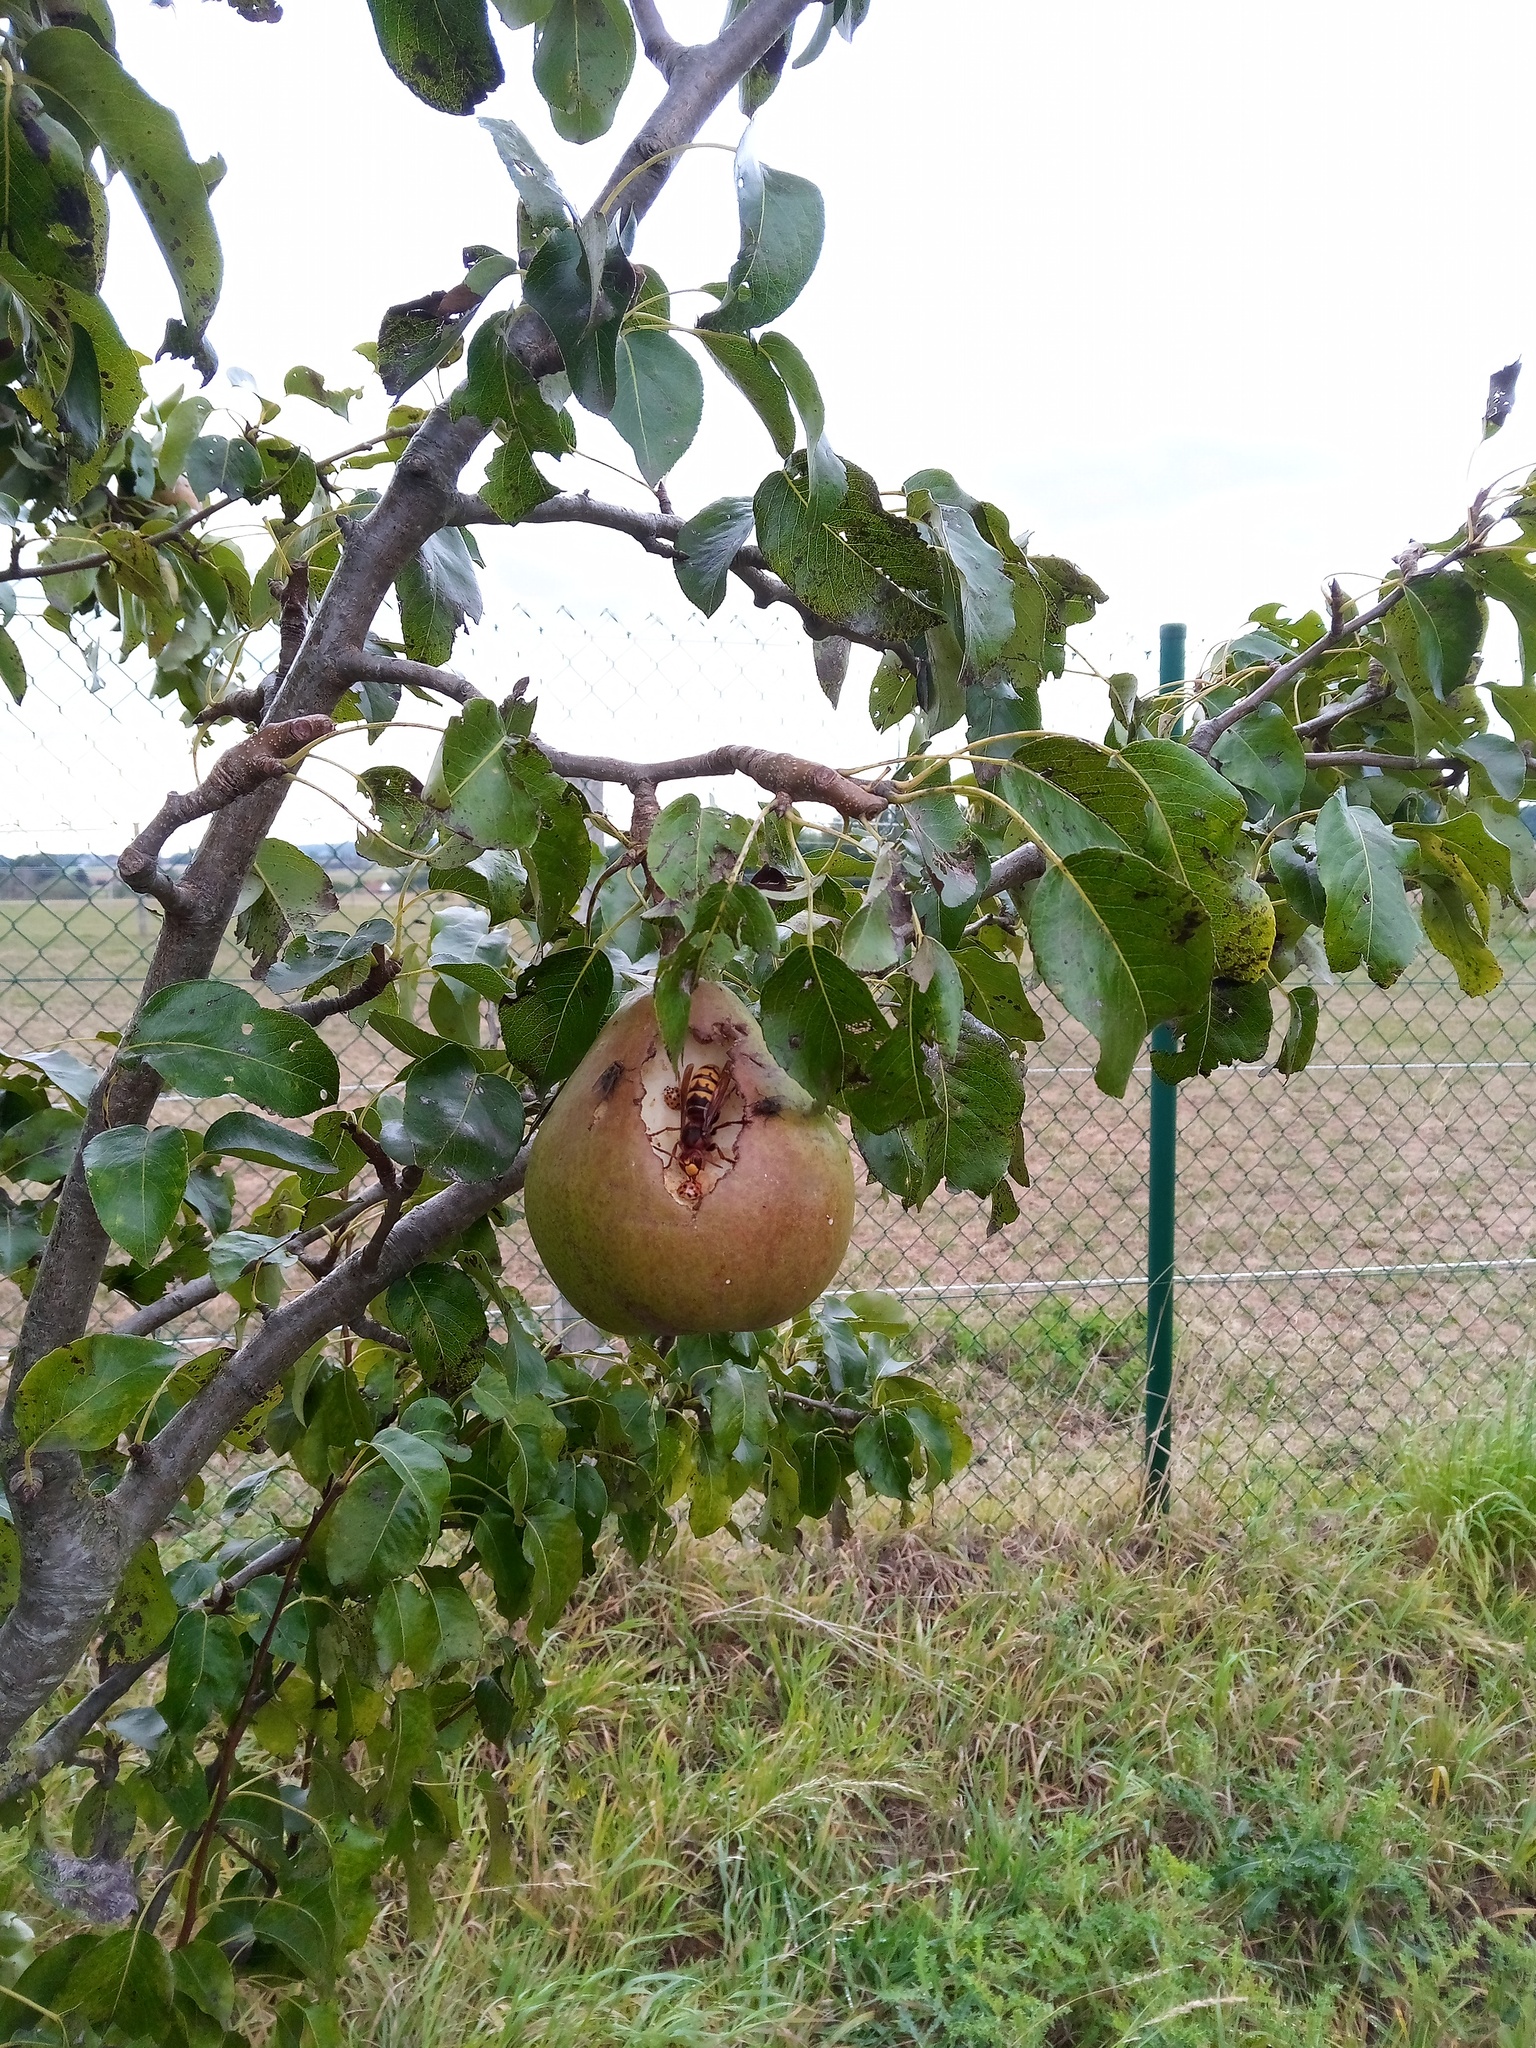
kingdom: Animalia
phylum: Arthropoda
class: Insecta
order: Hymenoptera
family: Vespidae
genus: Vespa
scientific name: Vespa crabro
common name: Hornet
